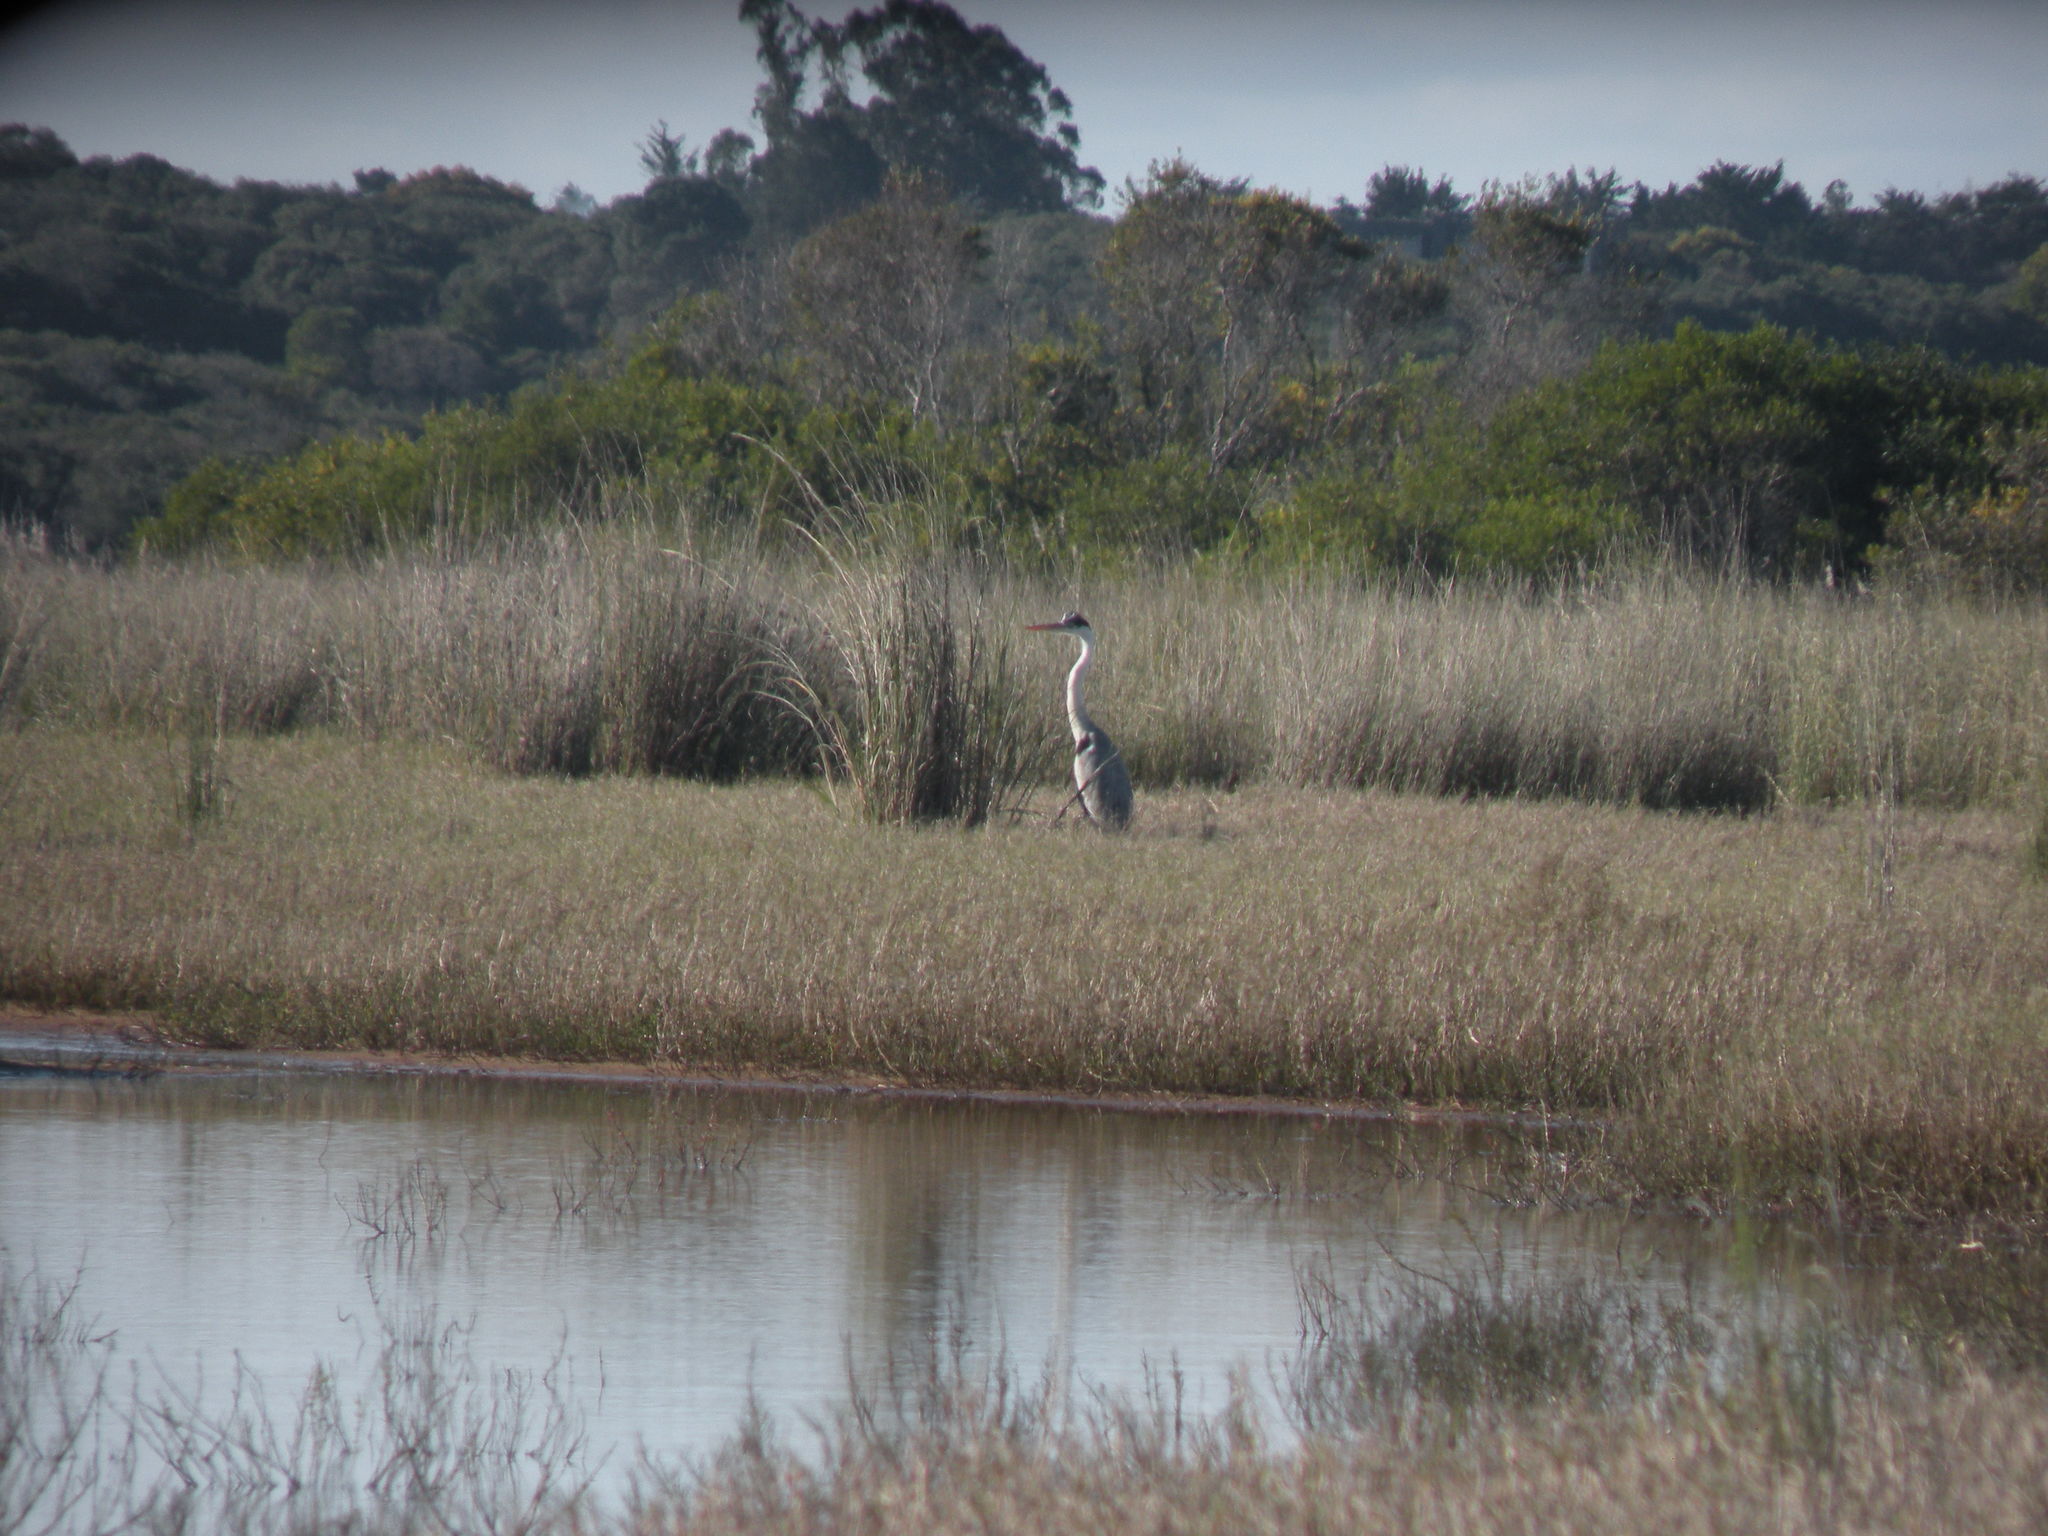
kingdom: Animalia
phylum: Chordata
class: Aves
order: Pelecaniformes
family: Ardeidae
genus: Ardea
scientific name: Ardea cocoi
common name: Cocoi heron
